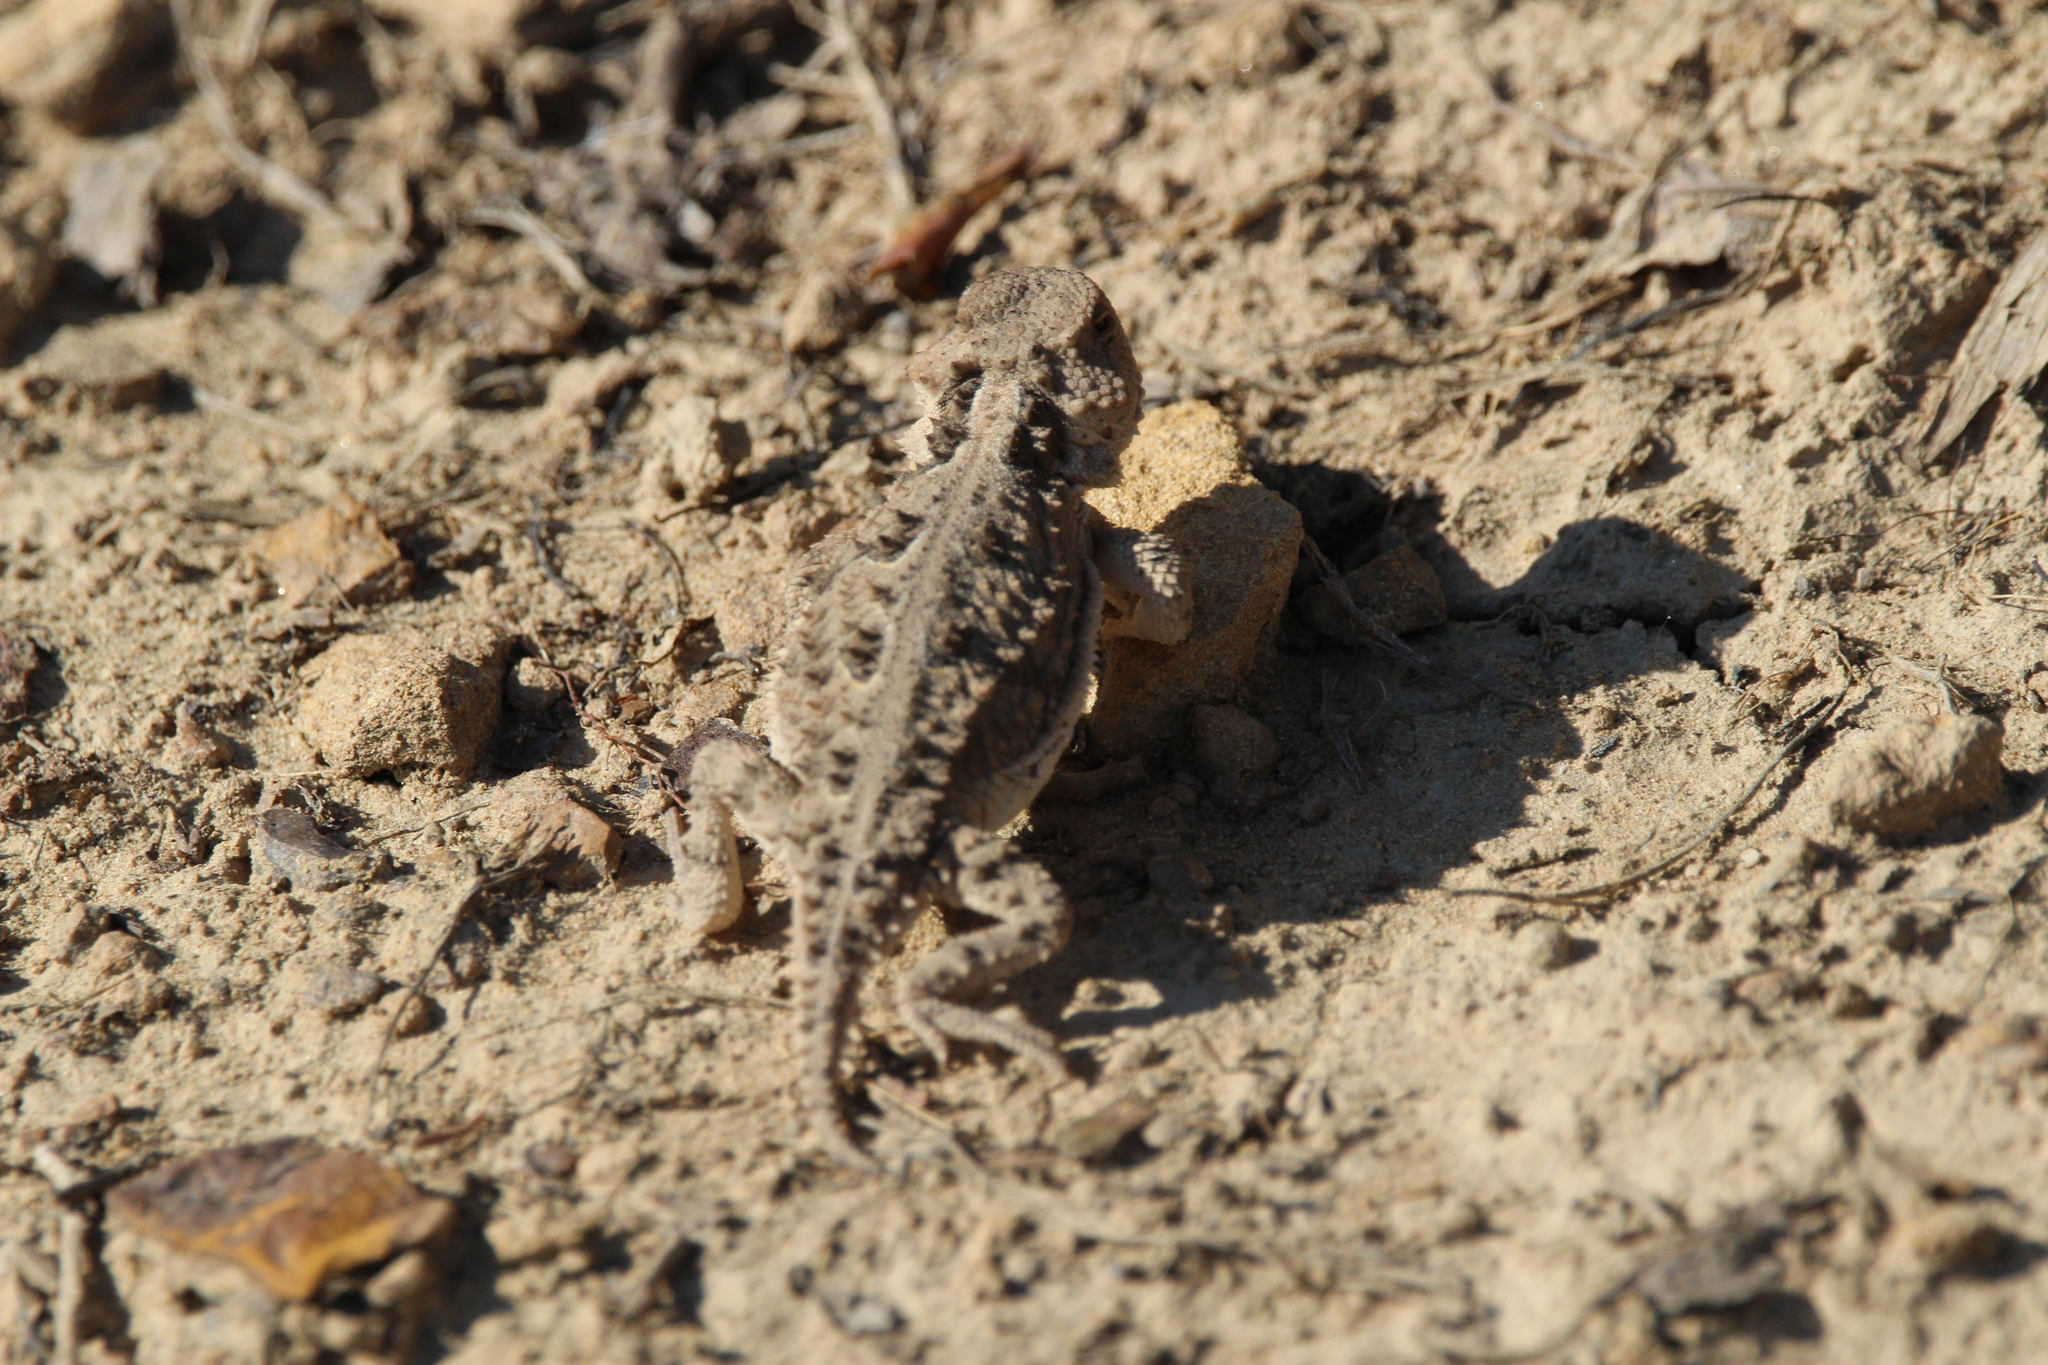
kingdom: Animalia
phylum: Chordata
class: Squamata
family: Phrynosomatidae
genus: Phrynosoma
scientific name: Phrynosoma hernandesi
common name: Greater short-horned lizard
